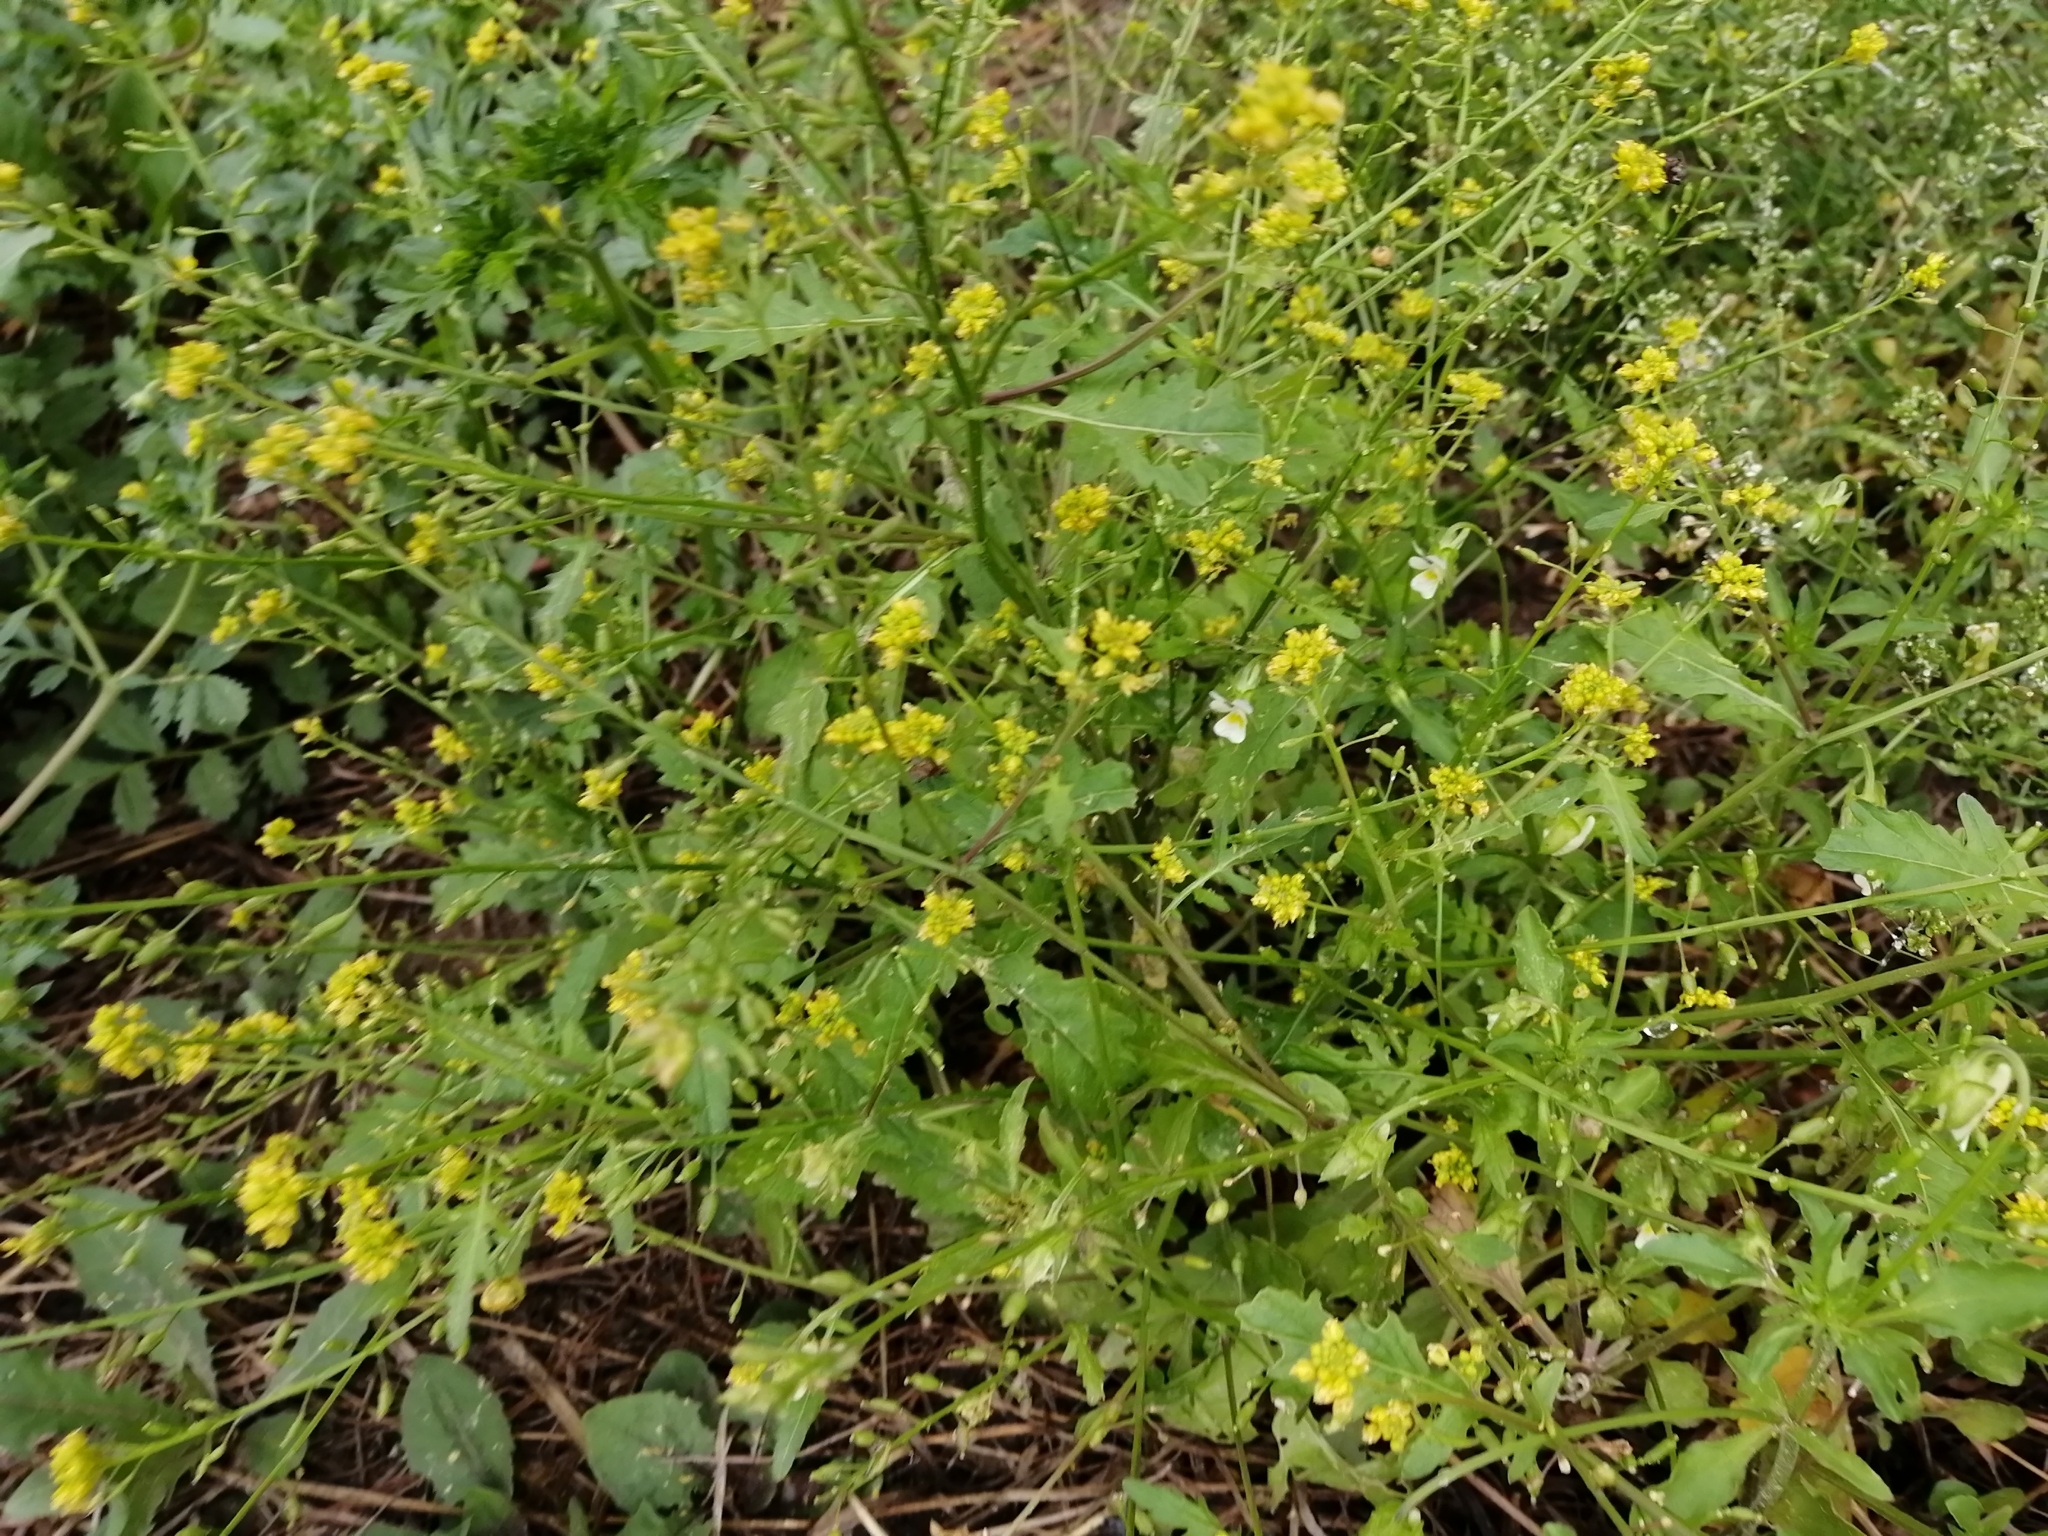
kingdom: Plantae
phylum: Tracheophyta
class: Magnoliopsida
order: Brassicales
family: Brassicaceae
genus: Rorippa
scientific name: Rorippa palustris
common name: Marsh yellow-cress
